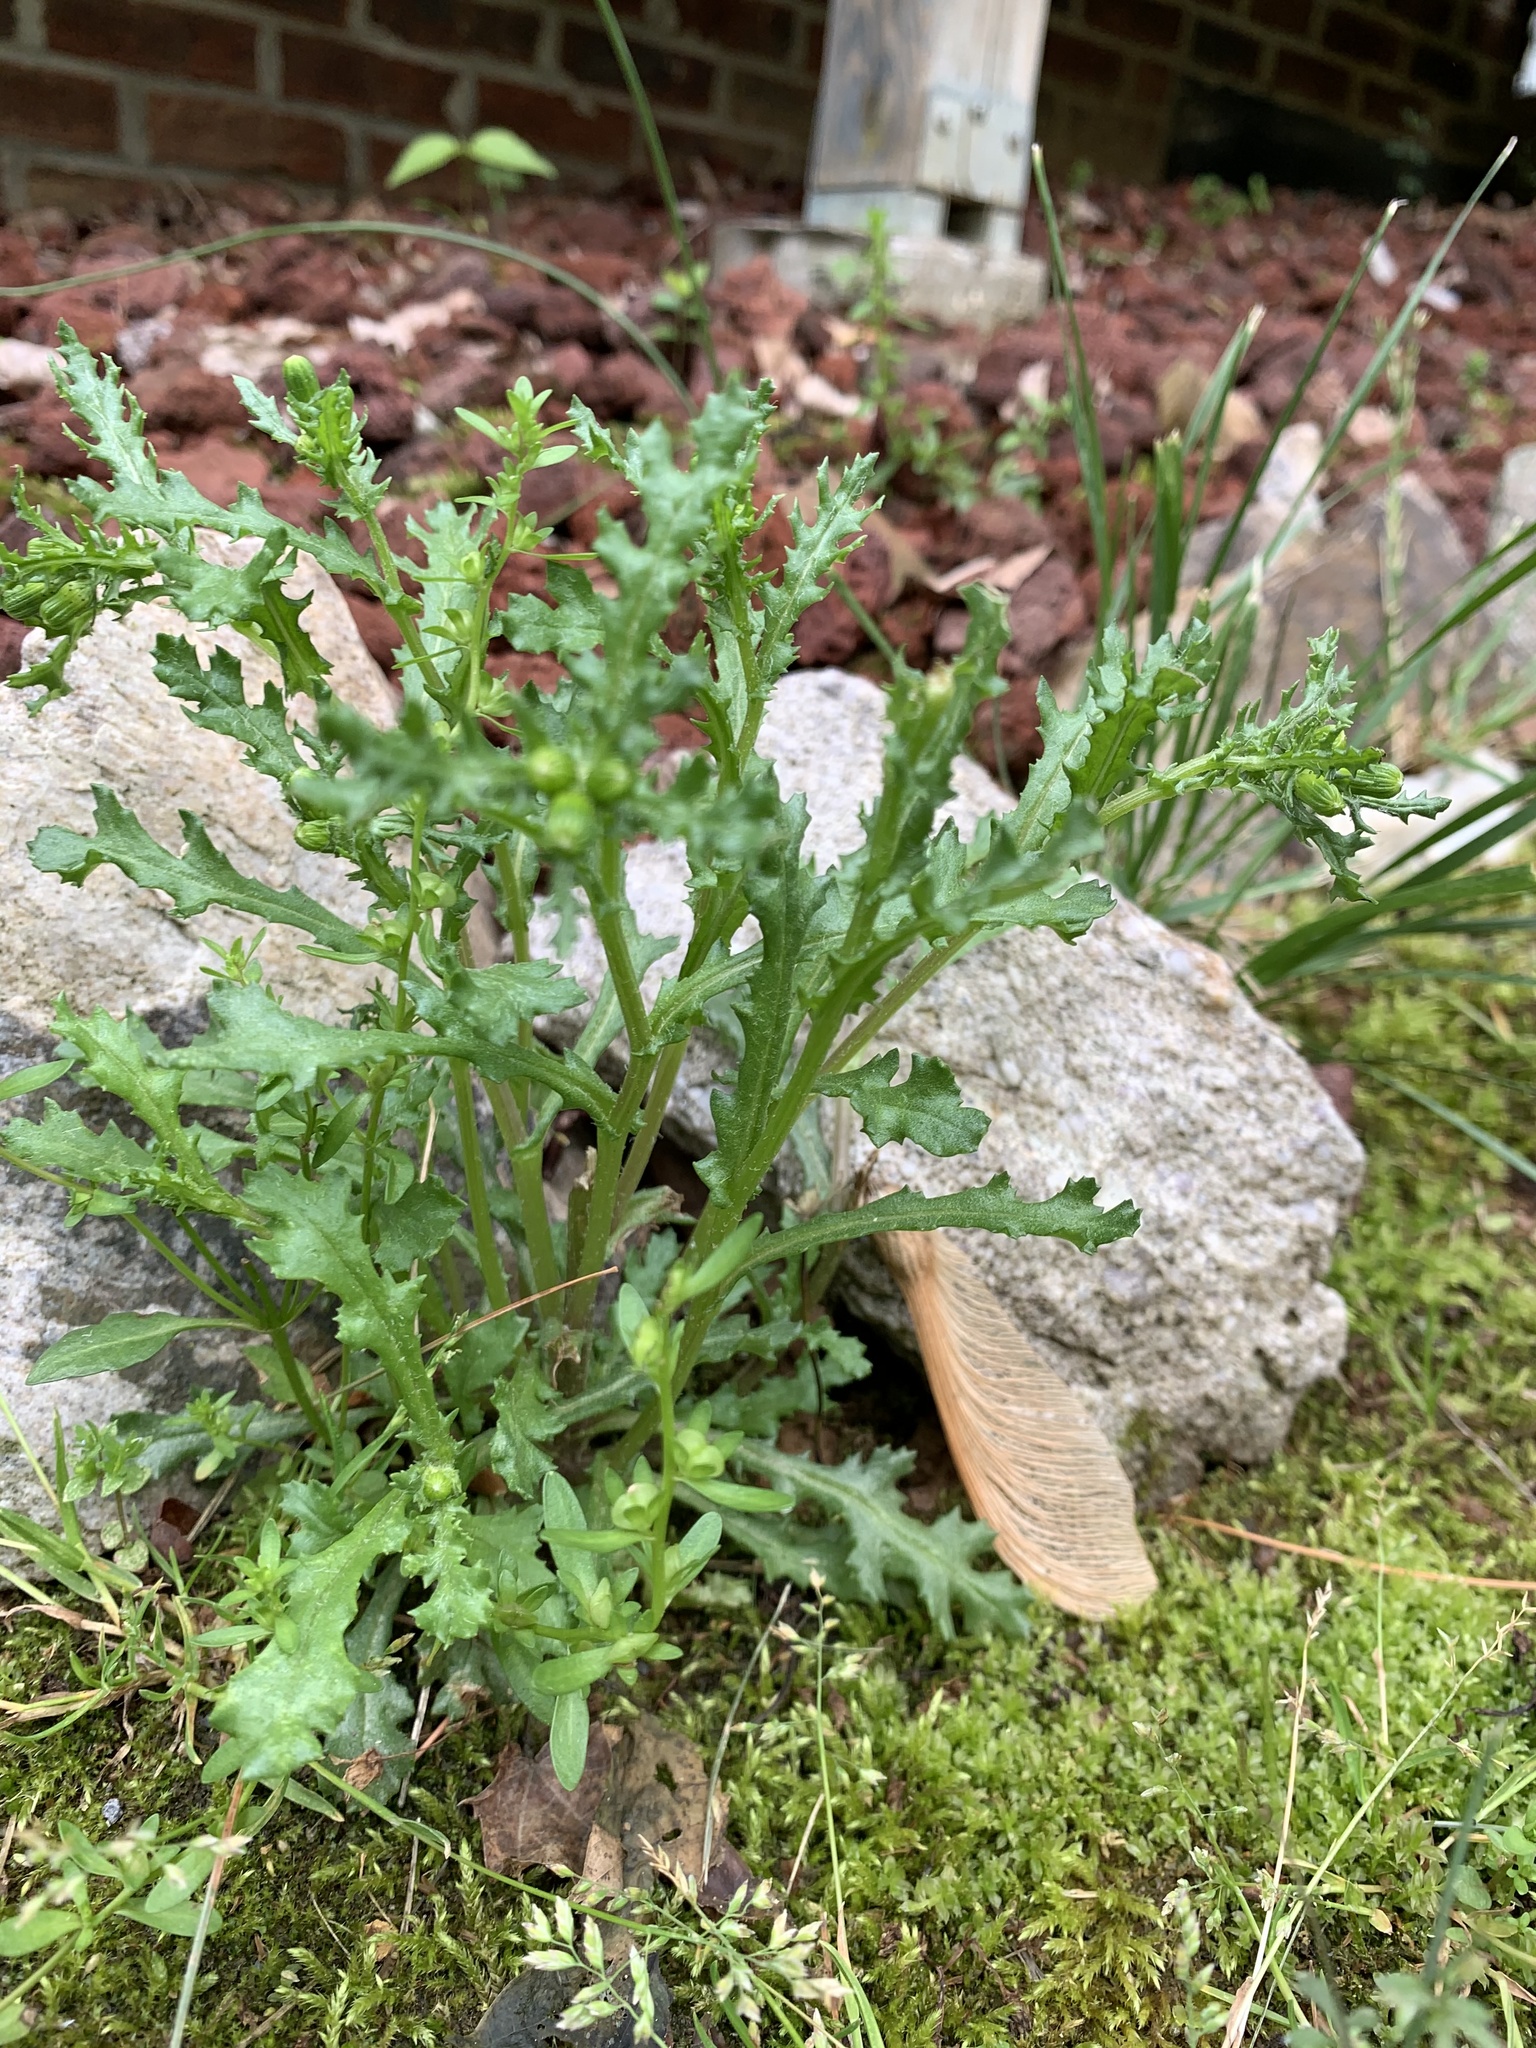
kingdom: Plantae
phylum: Tracheophyta
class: Magnoliopsida
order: Asterales
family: Asteraceae
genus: Senecio
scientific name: Senecio vulgaris
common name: Old-man-in-the-spring
